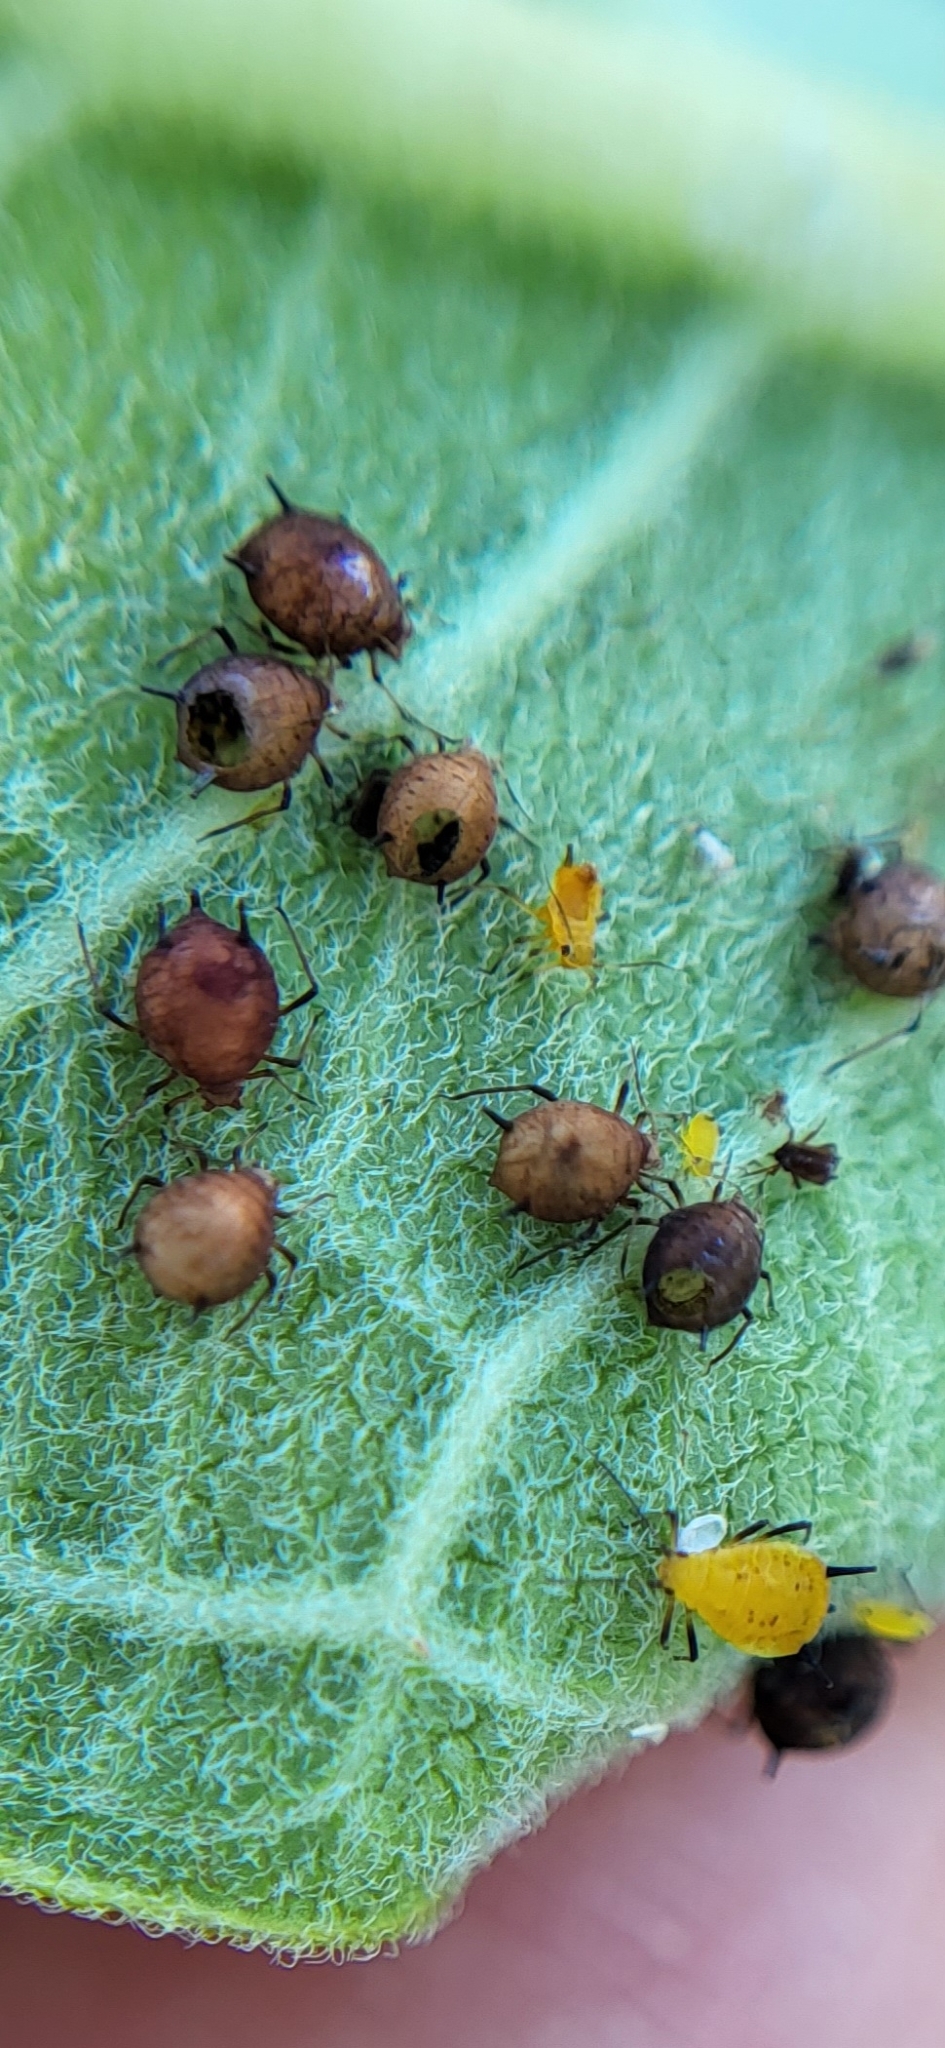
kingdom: Animalia
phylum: Arthropoda
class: Insecta
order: Hemiptera
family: Aphididae
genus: Aphis
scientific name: Aphis nerii
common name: Oleander aphid
